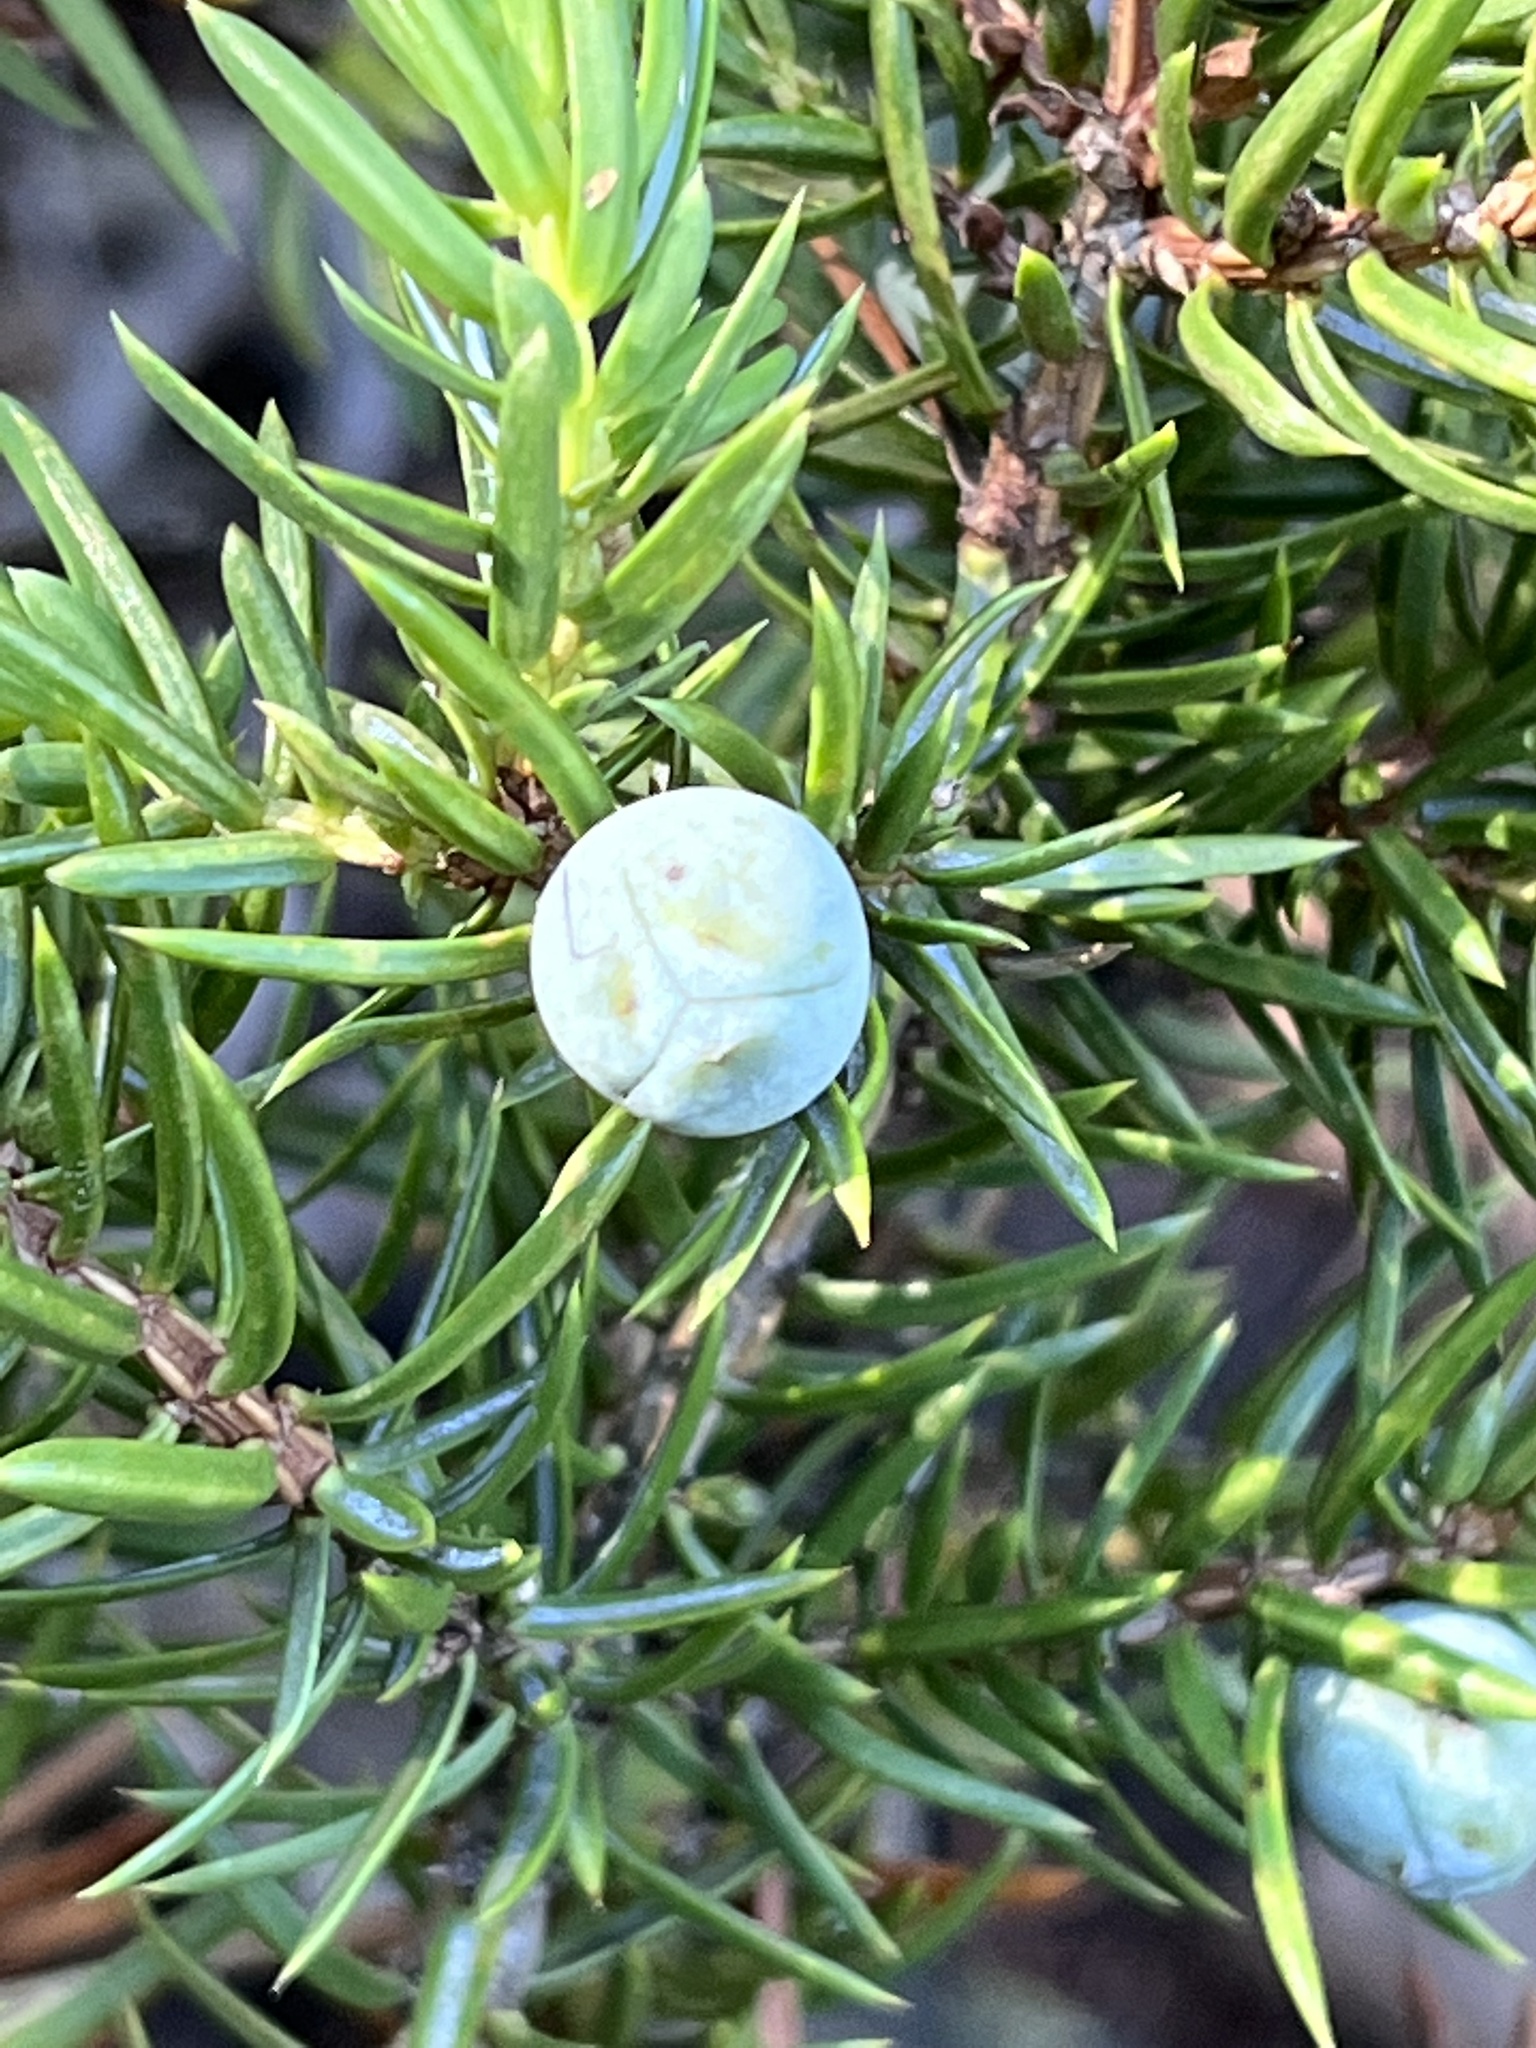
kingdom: Plantae
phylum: Tracheophyta
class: Pinopsida
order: Pinales
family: Cupressaceae
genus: Juniperus
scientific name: Juniperus communis
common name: Common juniper
